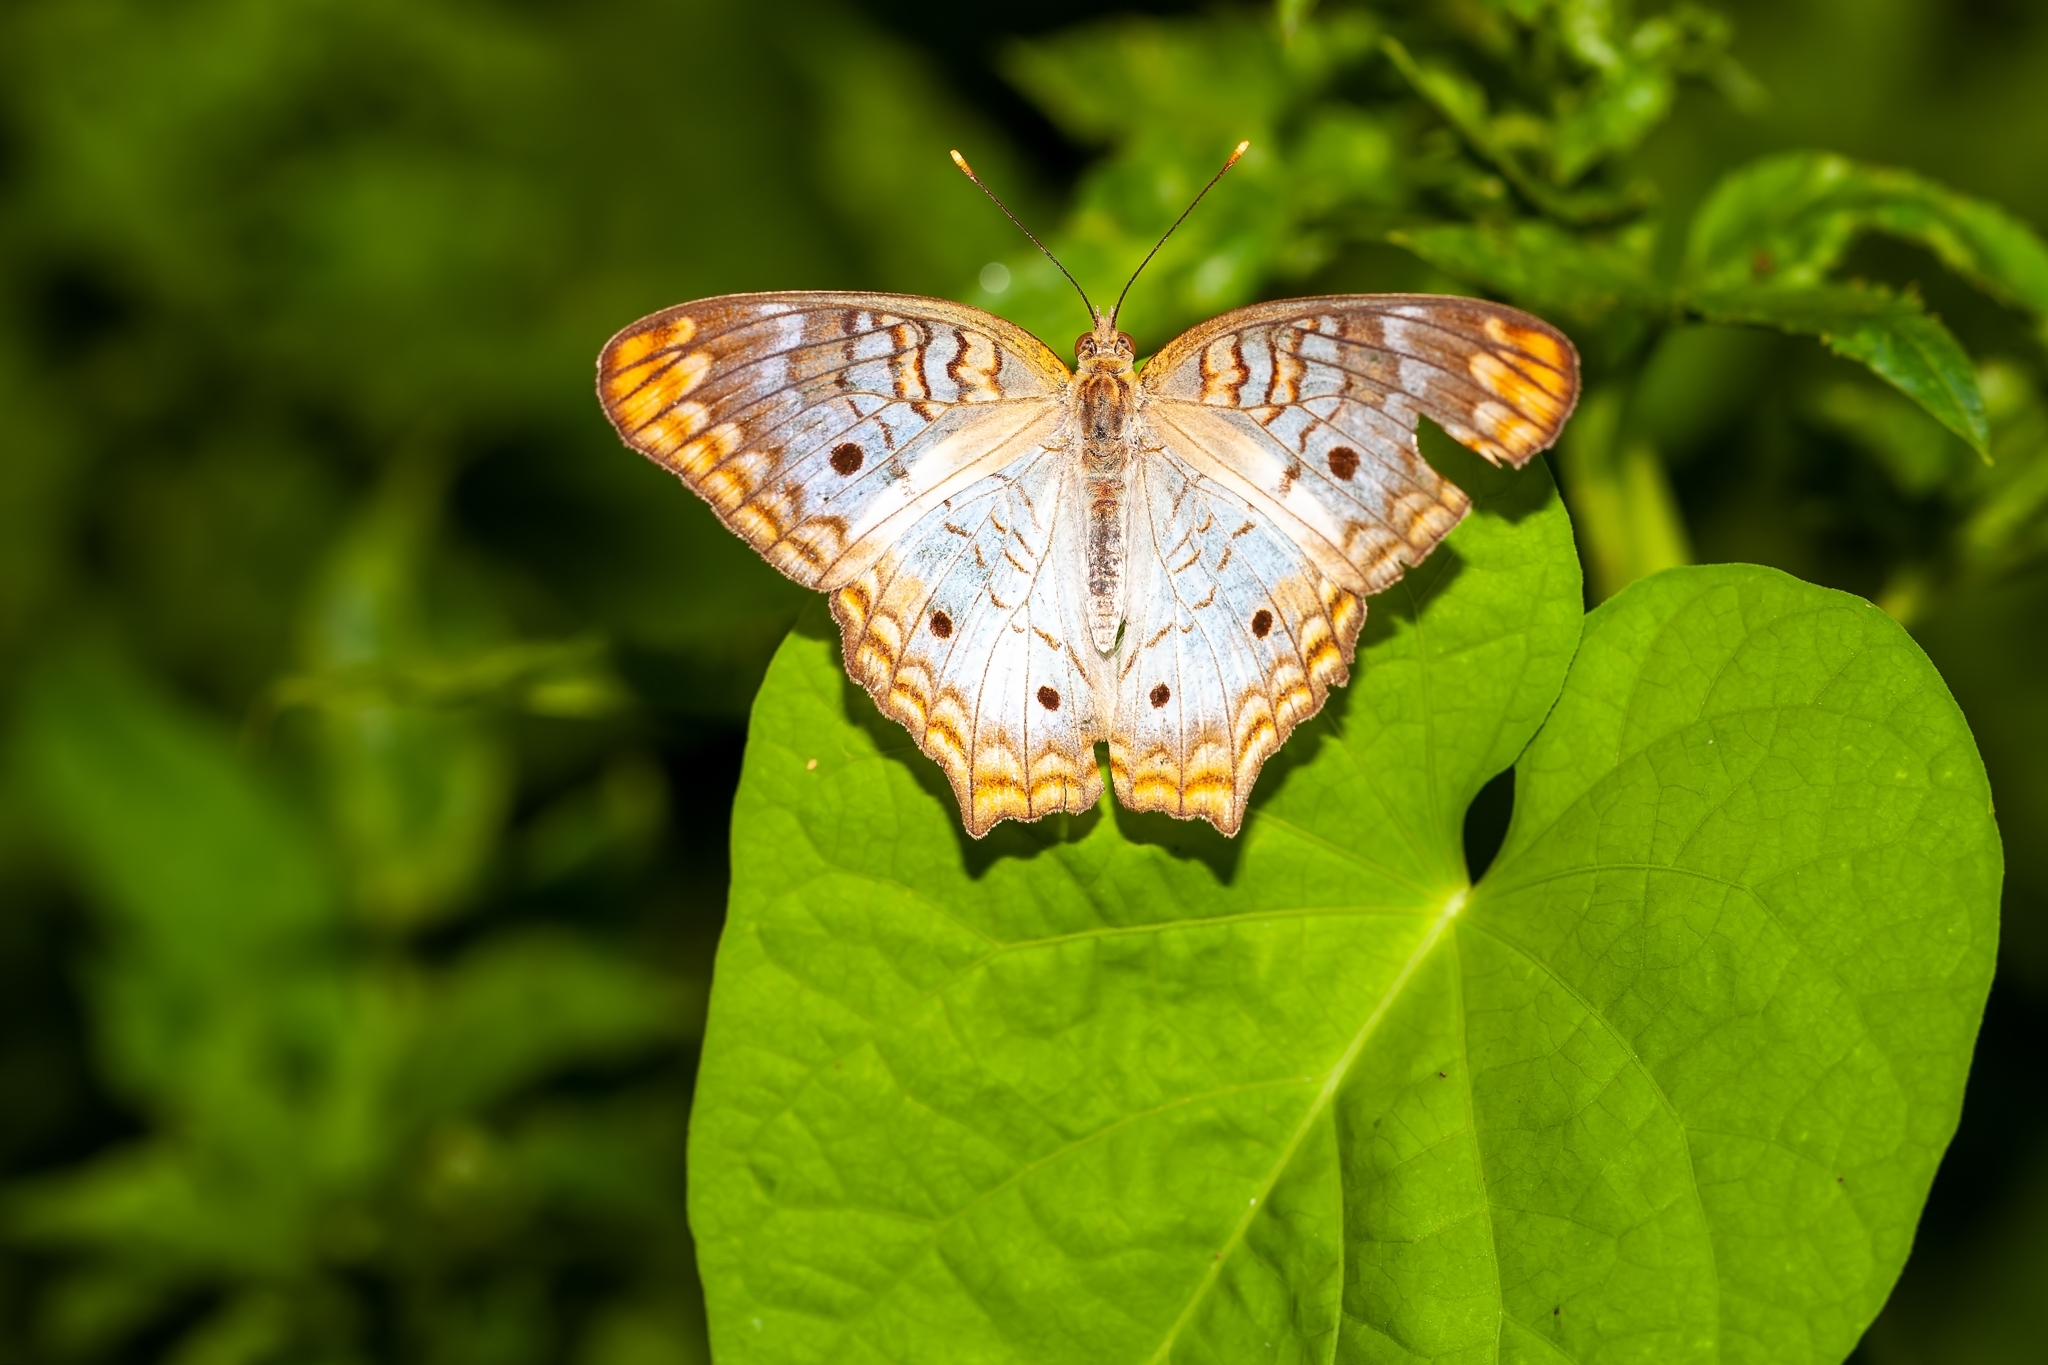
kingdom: Animalia
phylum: Arthropoda
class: Insecta
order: Lepidoptera
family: Nymphalidae
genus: Anartia
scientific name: Anartia jatrophae
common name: White peacock
